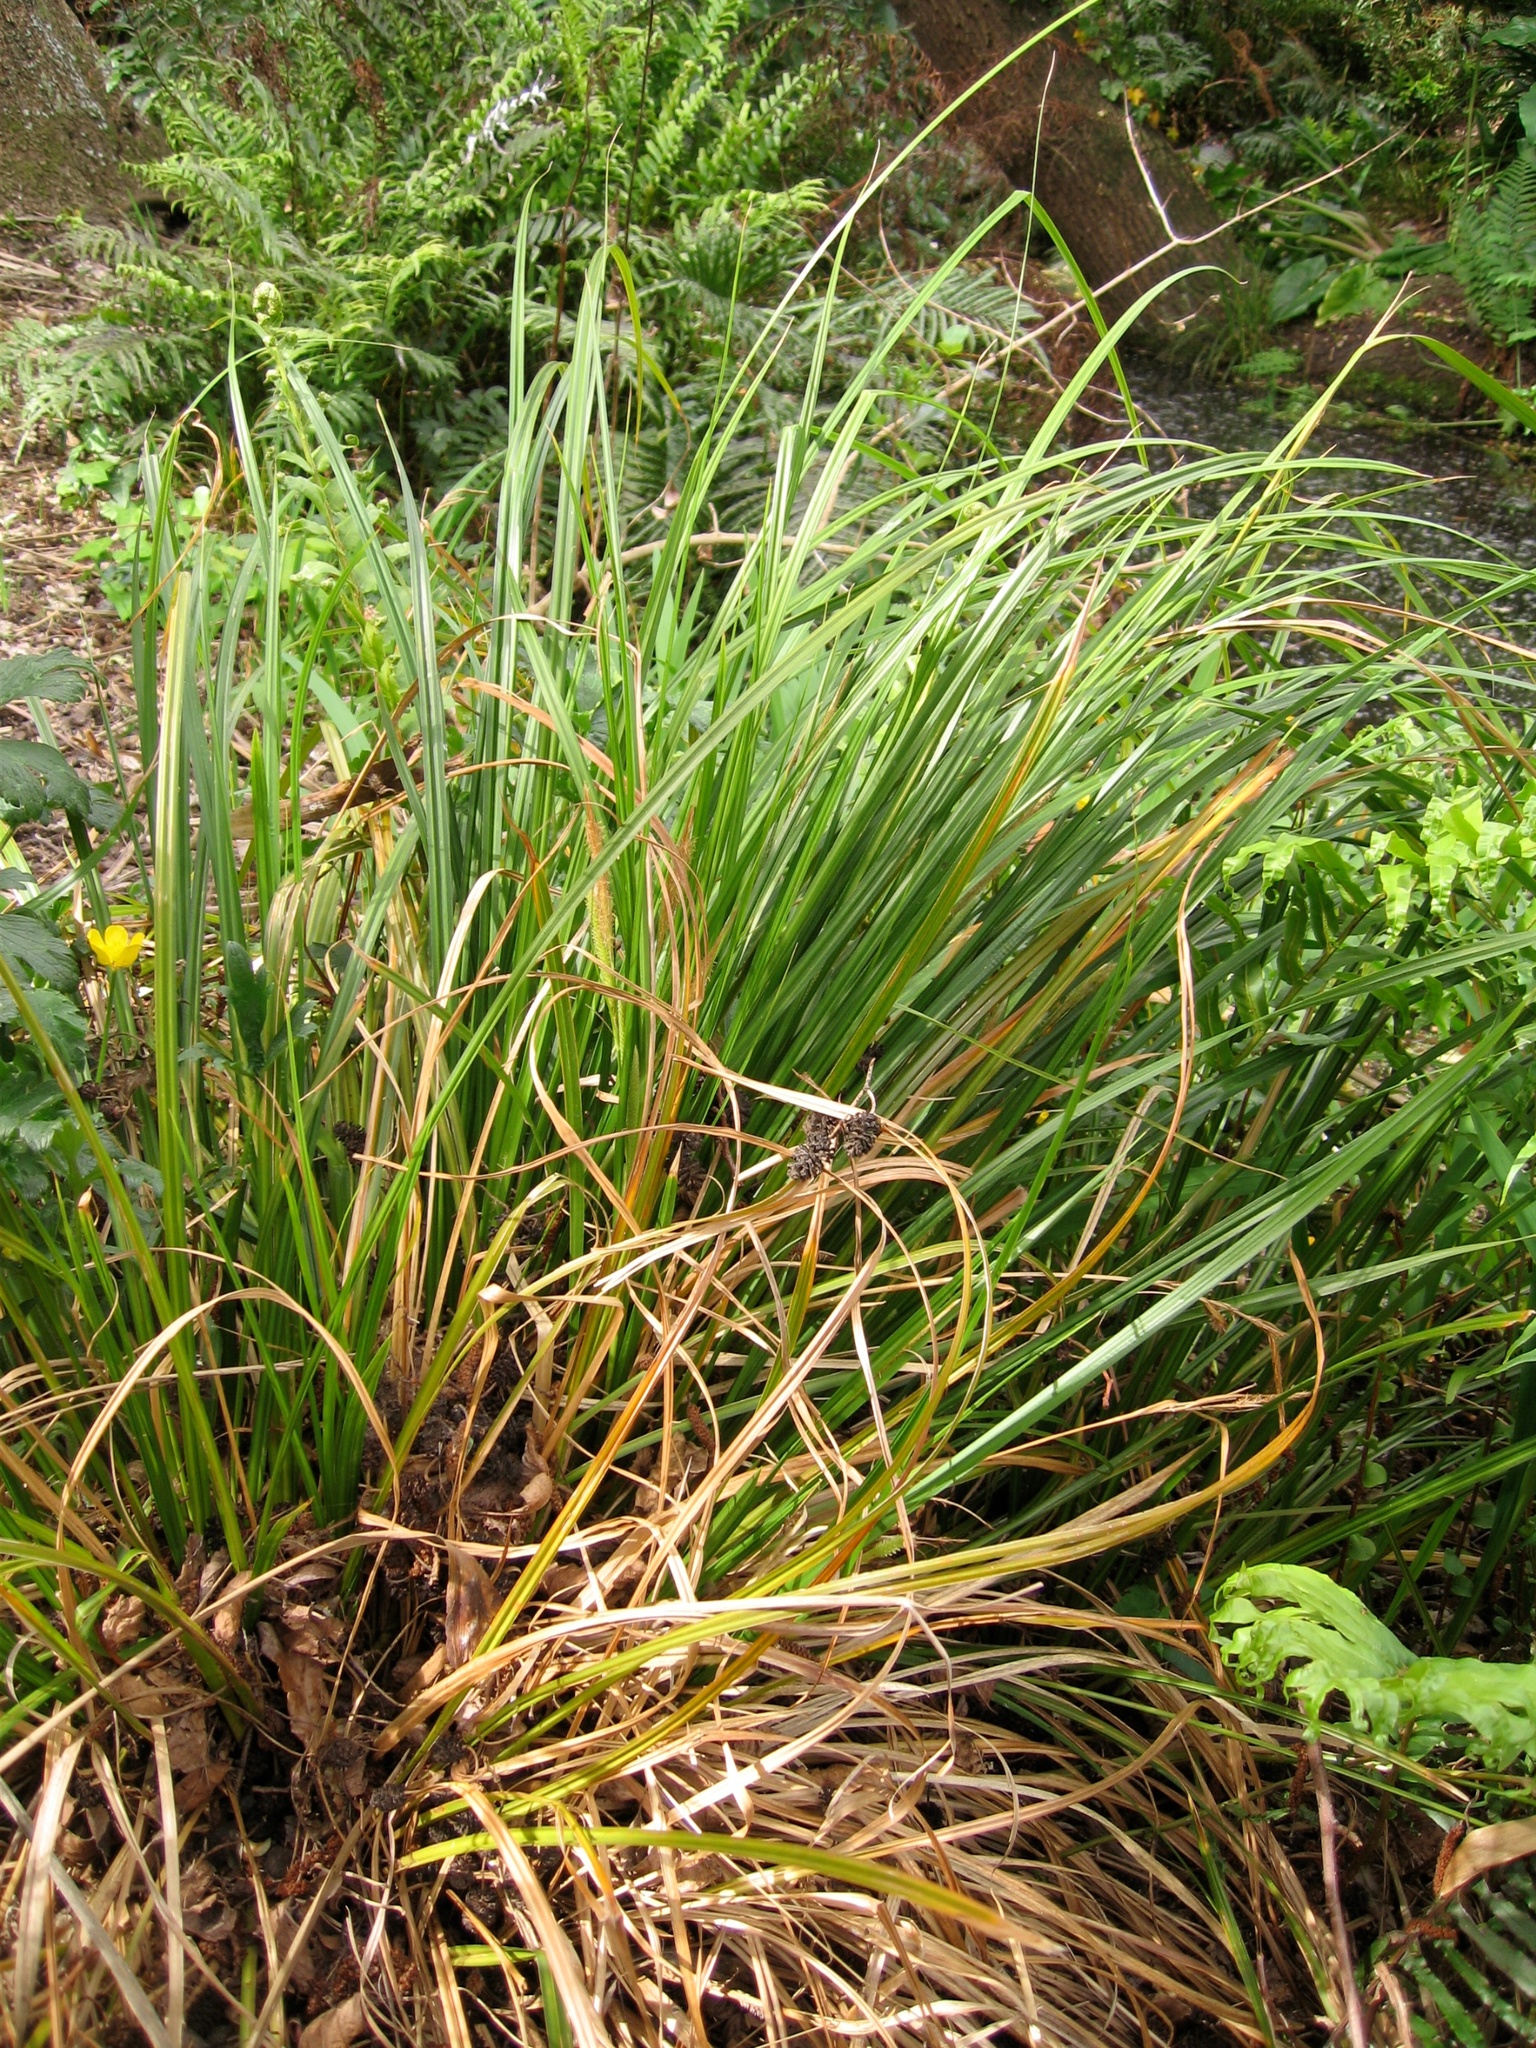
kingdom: Plantae
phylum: Tracheophyta
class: Liliopsida
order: Poales
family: Cyperaceae
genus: Carex
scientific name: Carex dissita
